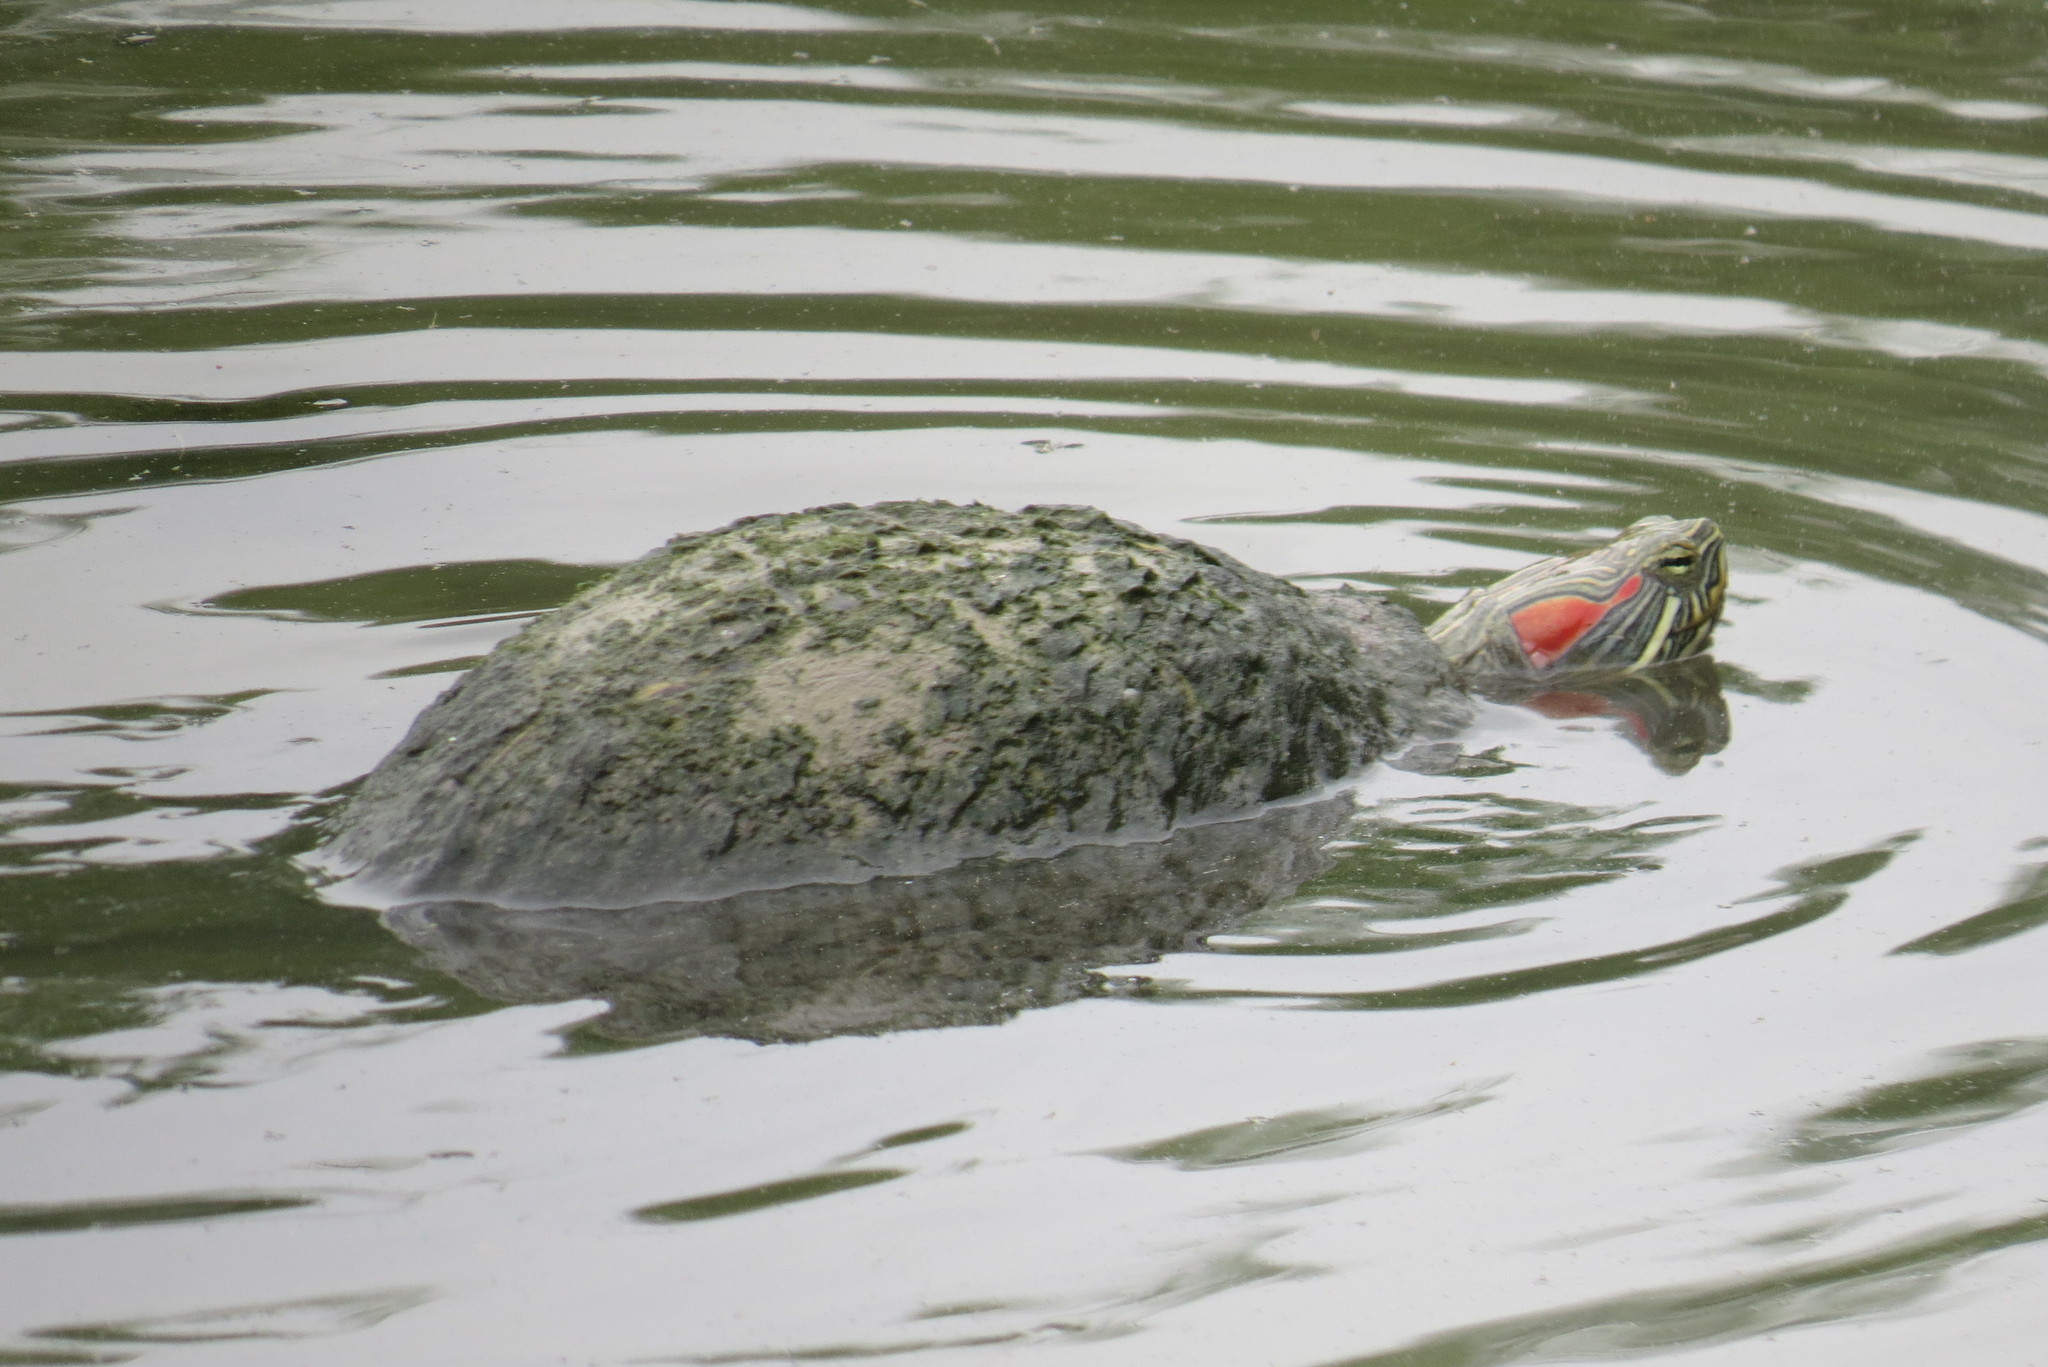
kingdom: Animalia
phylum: Chordata
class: Testudines
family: Emydidae
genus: Trachemys
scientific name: Trachemys scripta
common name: Slider
